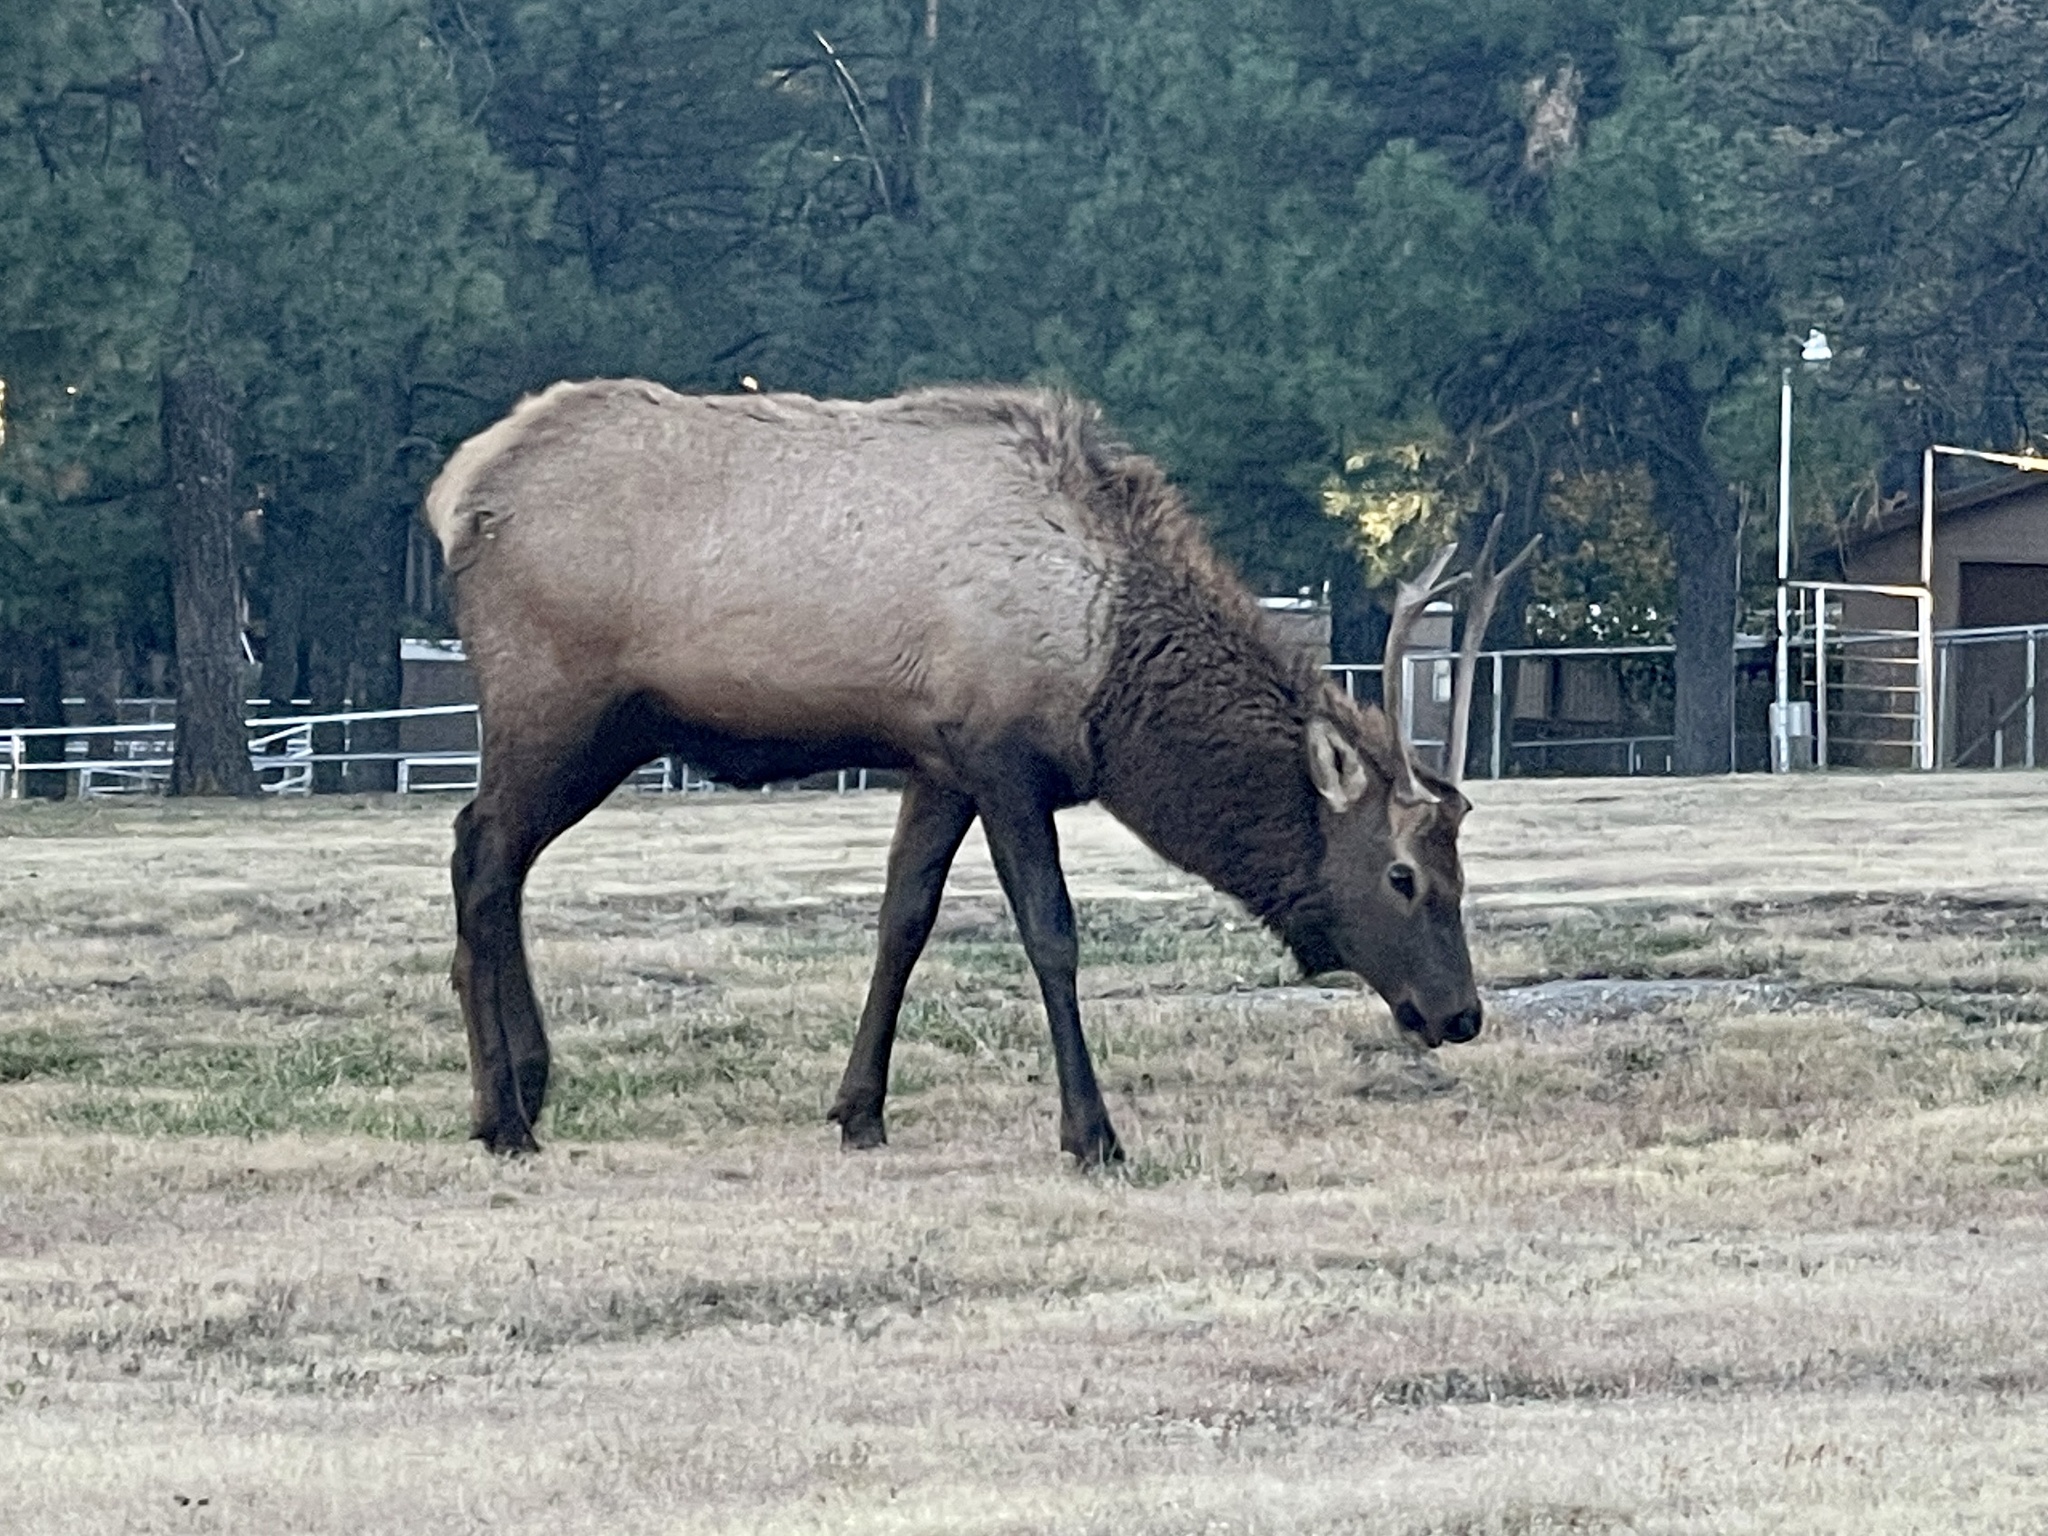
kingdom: Animalia
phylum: Chordata
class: Mammalia
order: Artiodactyla
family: Cervidae
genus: Cervus
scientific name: Cervus elaphus
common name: Red deer
